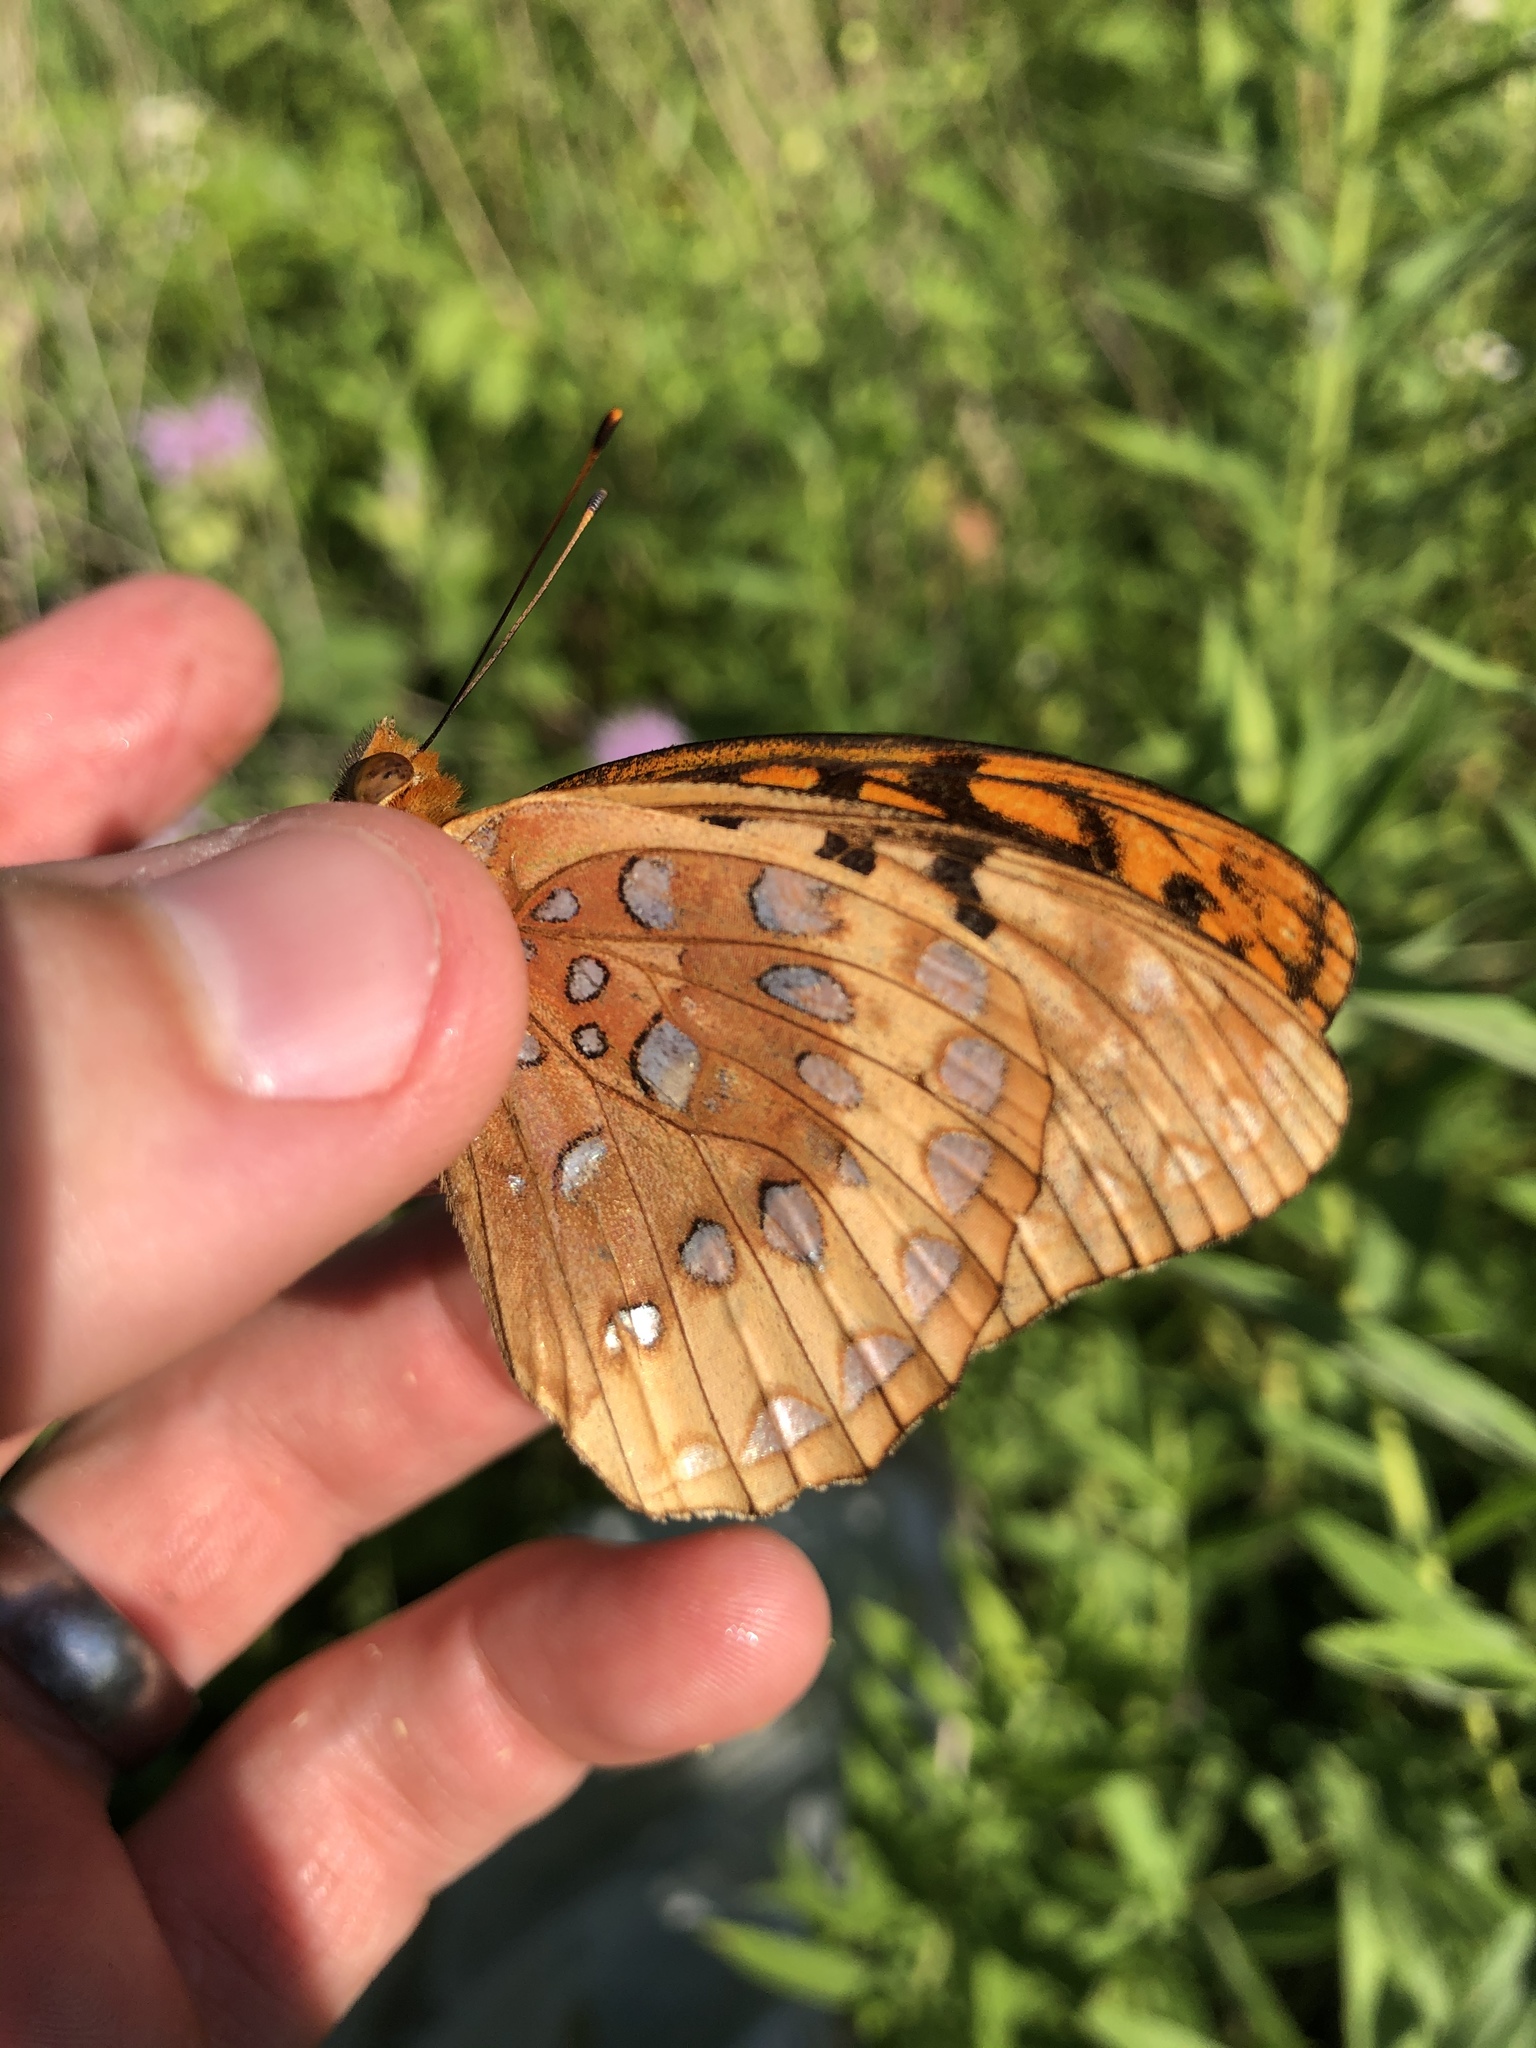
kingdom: Animalia
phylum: Arthropoda
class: Insecta
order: Lepidoptera
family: Nymphalidae
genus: Speyeria
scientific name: Speyeria cybele
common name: Great spangled fritillary
